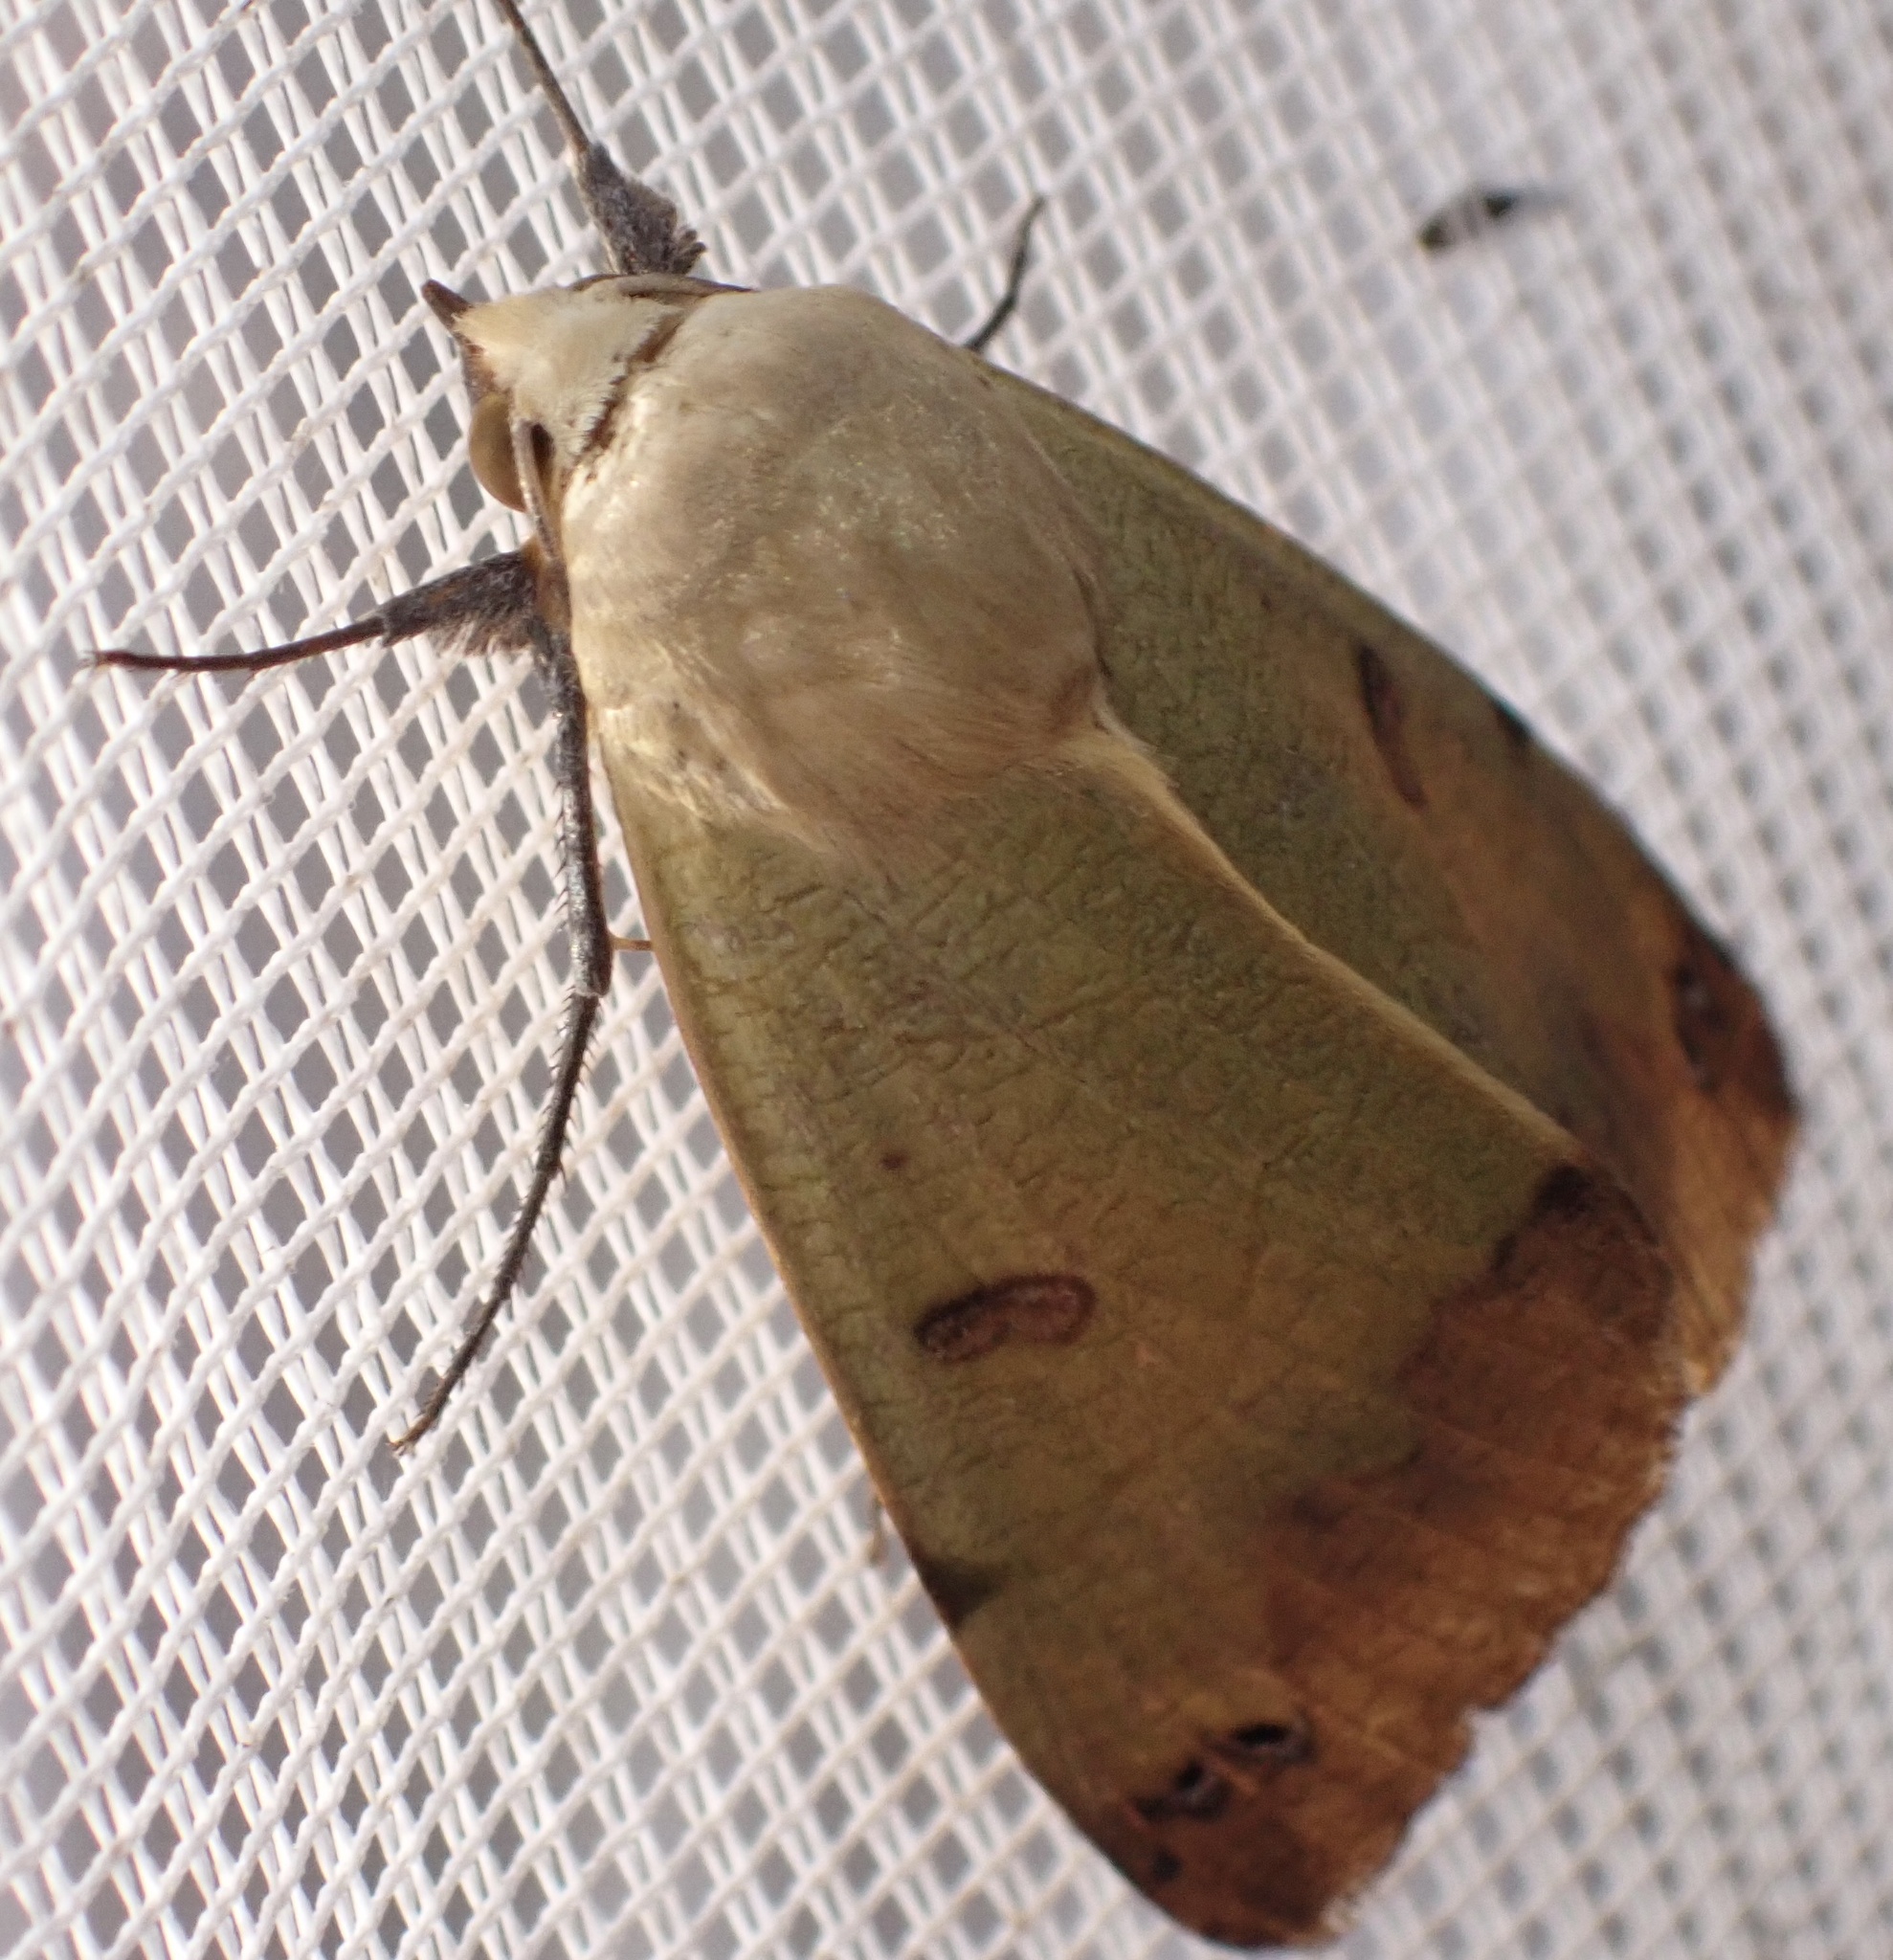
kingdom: Animalia
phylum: Arthropoda
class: Insecta
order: Lepidoptera
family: Erebidae
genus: Ophiusa
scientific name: Ophiusa tirhaca
